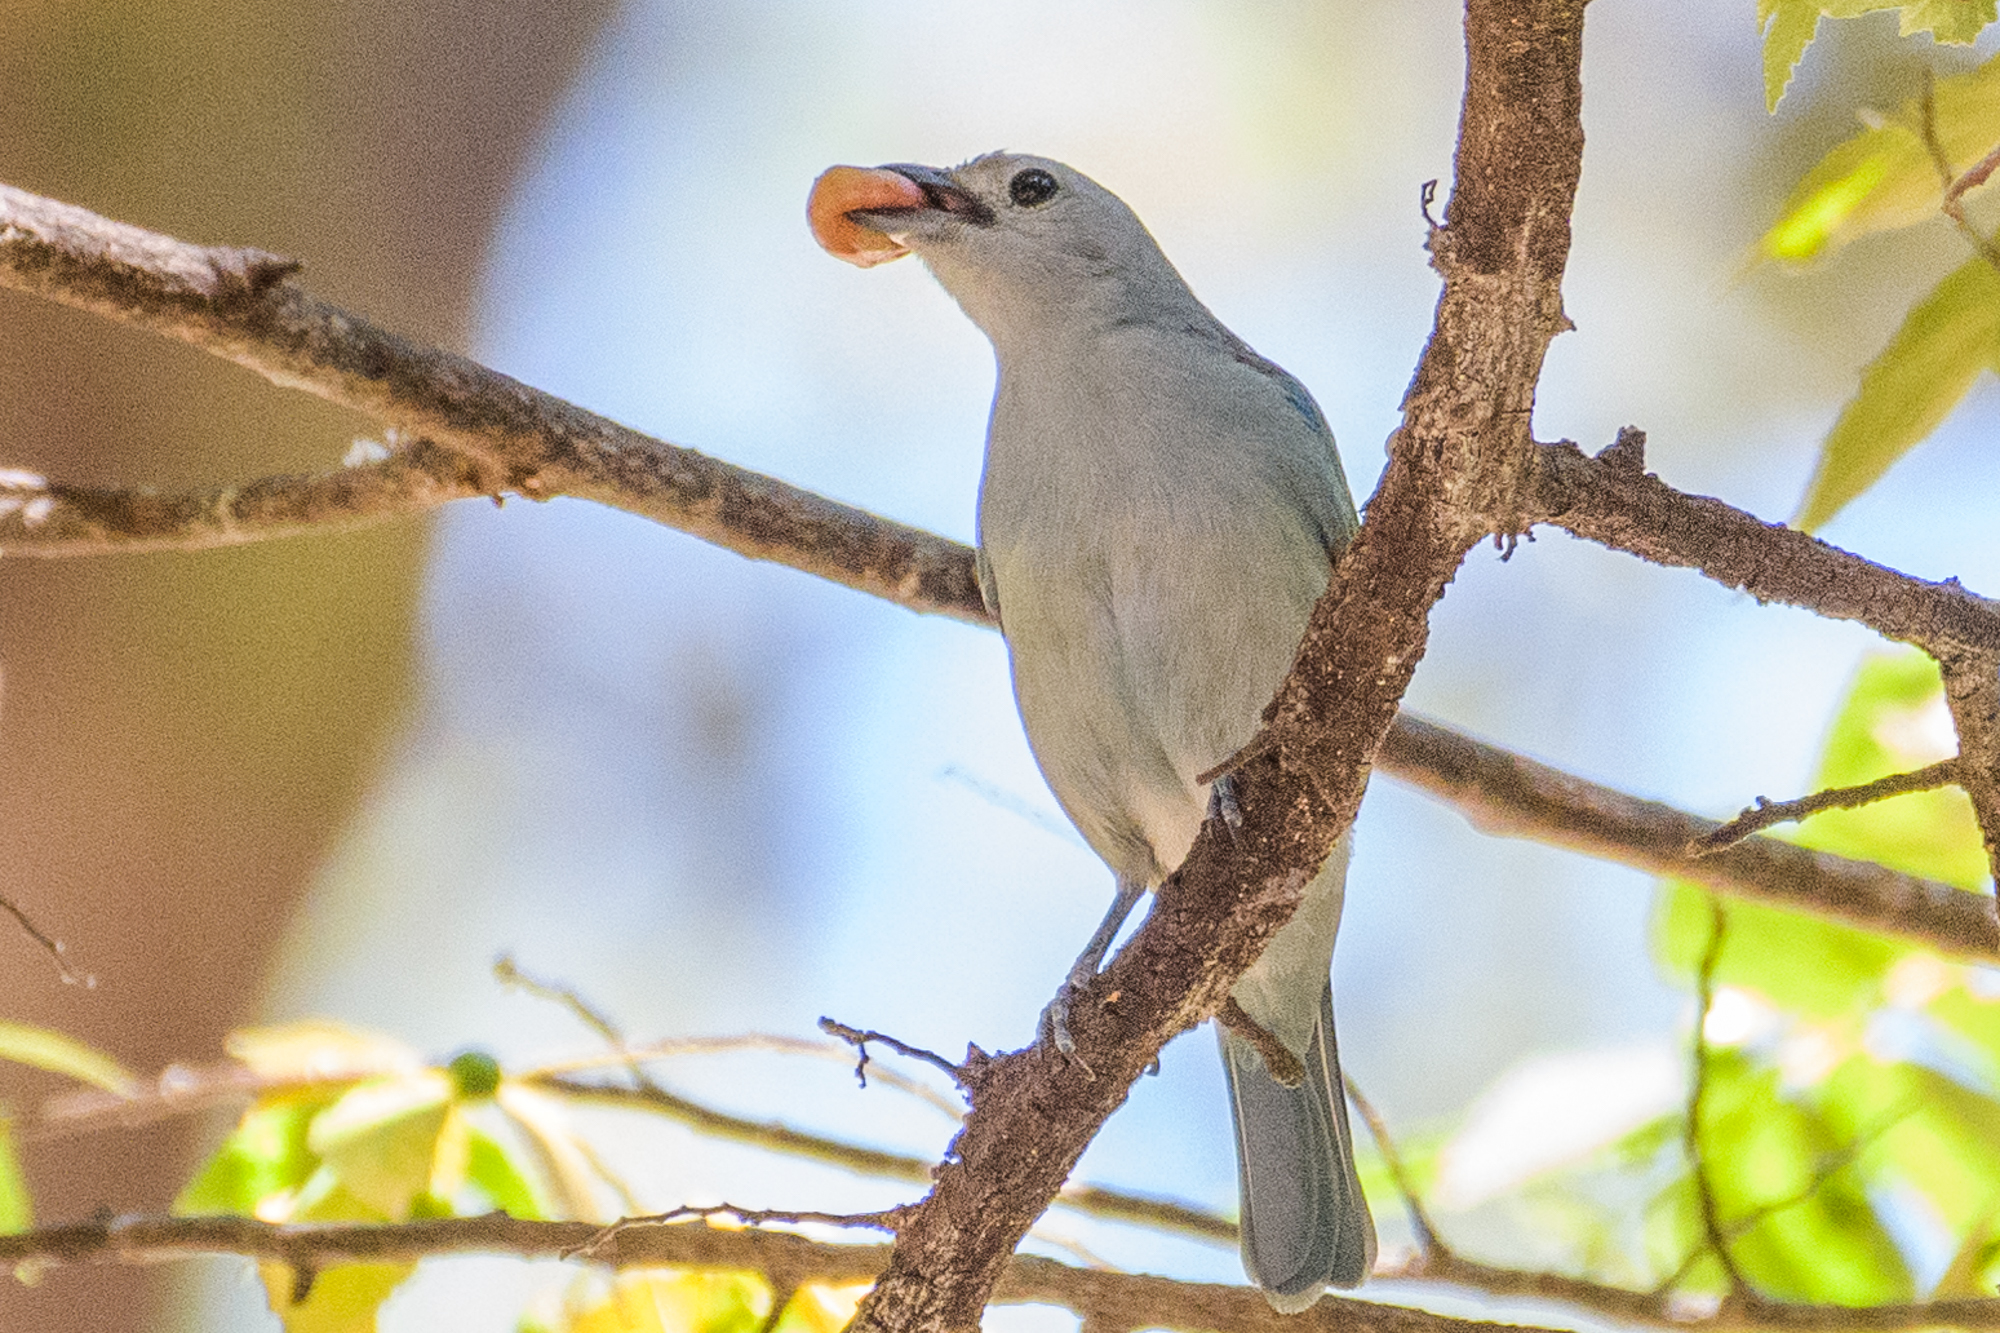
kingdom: Animalia
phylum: Chordata
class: Aves
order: Passeriformes
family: Thraupidae
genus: Thraupis
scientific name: Thraupis episcopus
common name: Blue-grey tanager
